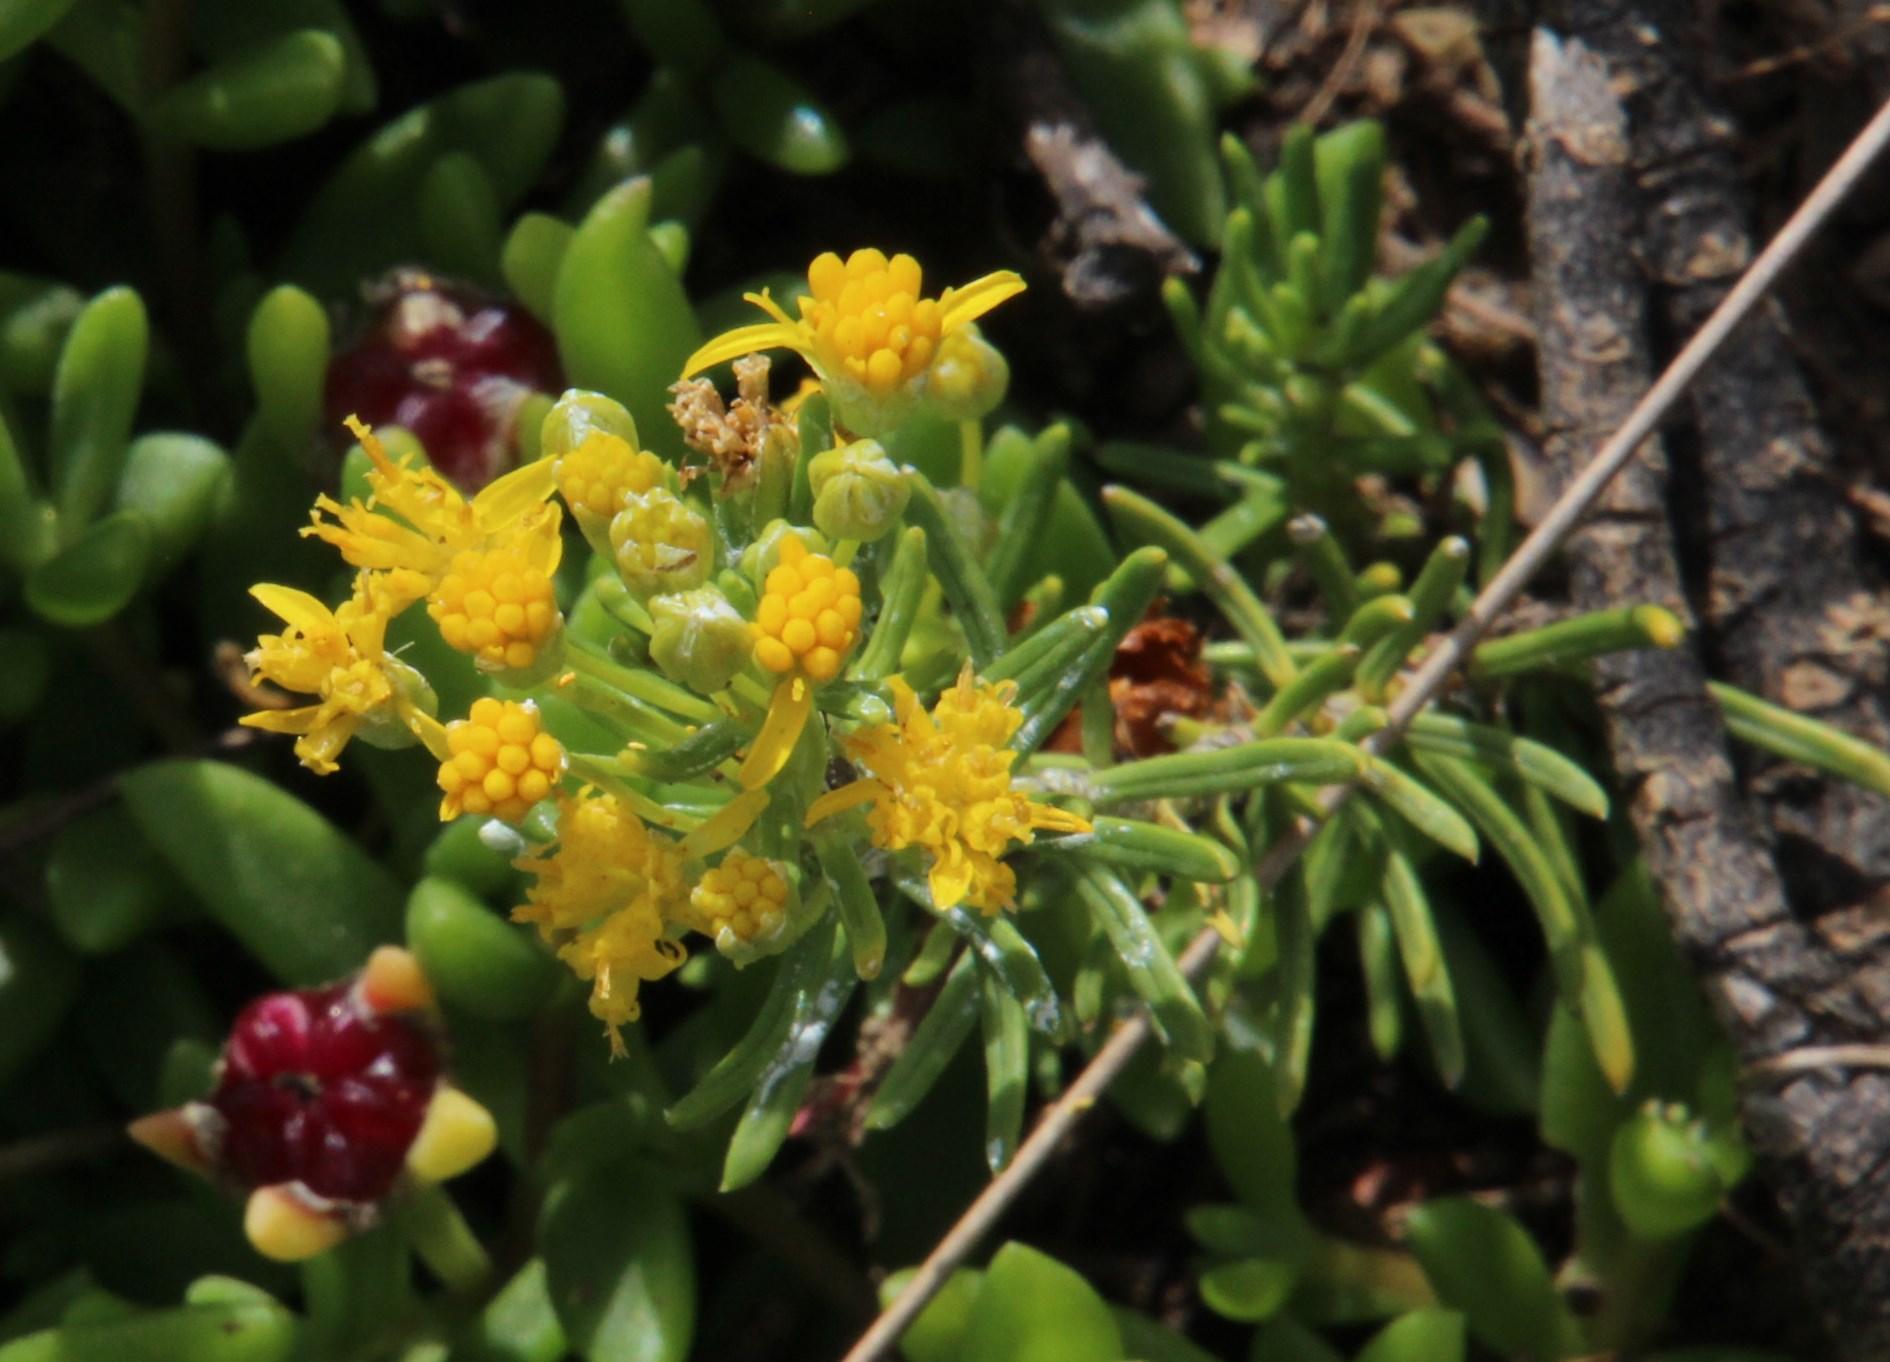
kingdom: Plantae
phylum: Tracheophyta
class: Magnoliopsida
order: Asterales
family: Asteraceae
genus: Euryops
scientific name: Euryops floribundus
